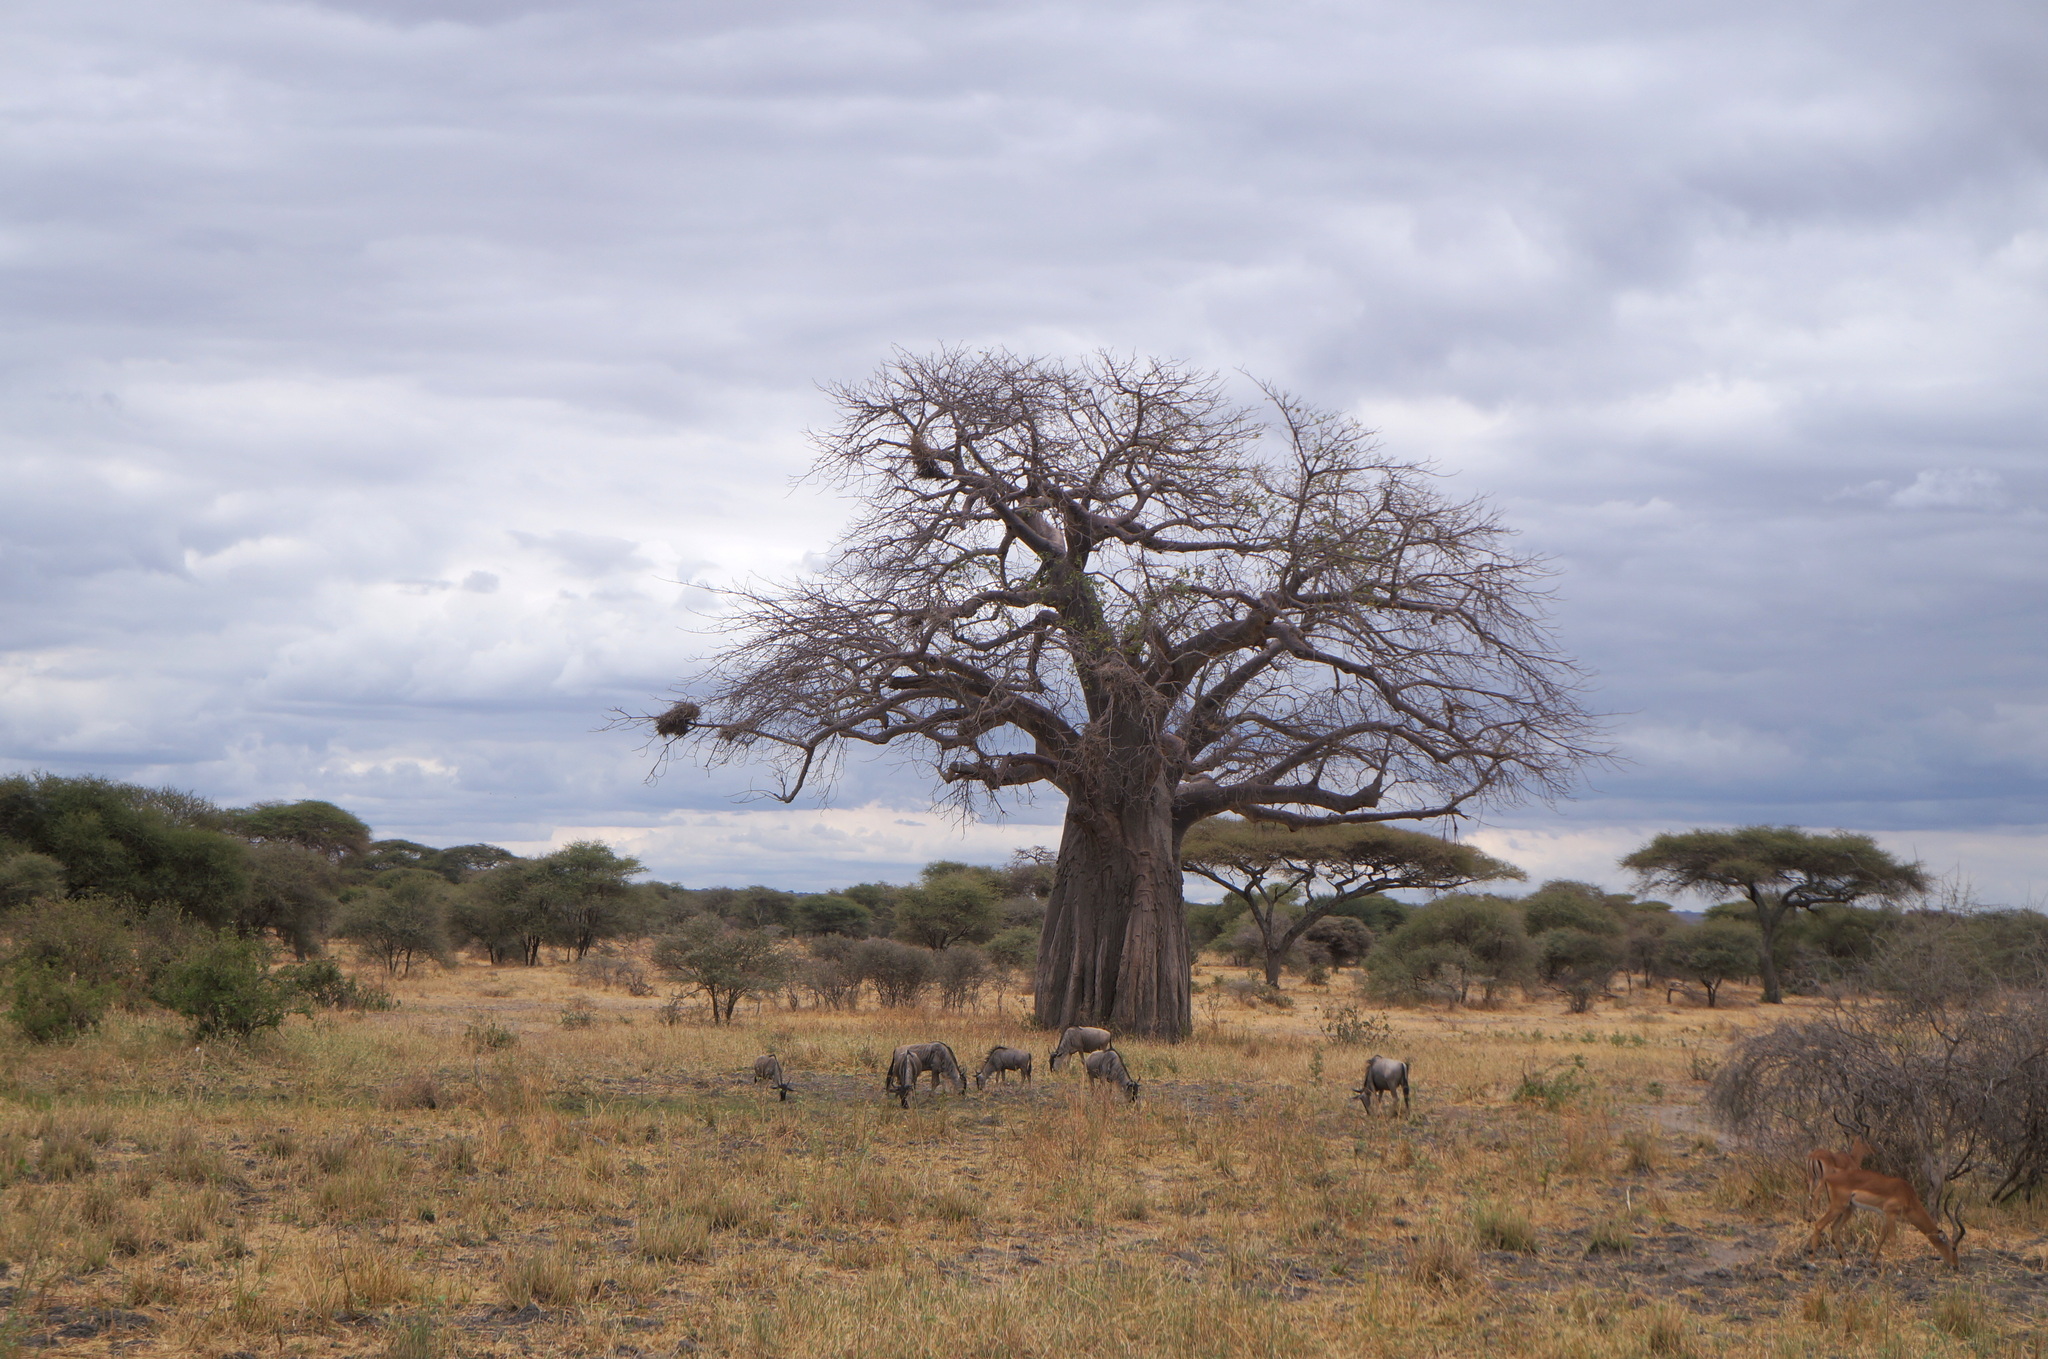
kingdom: Plantae
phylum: Tracheophyta
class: Magnoliopsida
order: Malvales
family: Malvaceae
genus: Adansonia
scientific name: Adansonia digitata
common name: Dead-rat-tree
